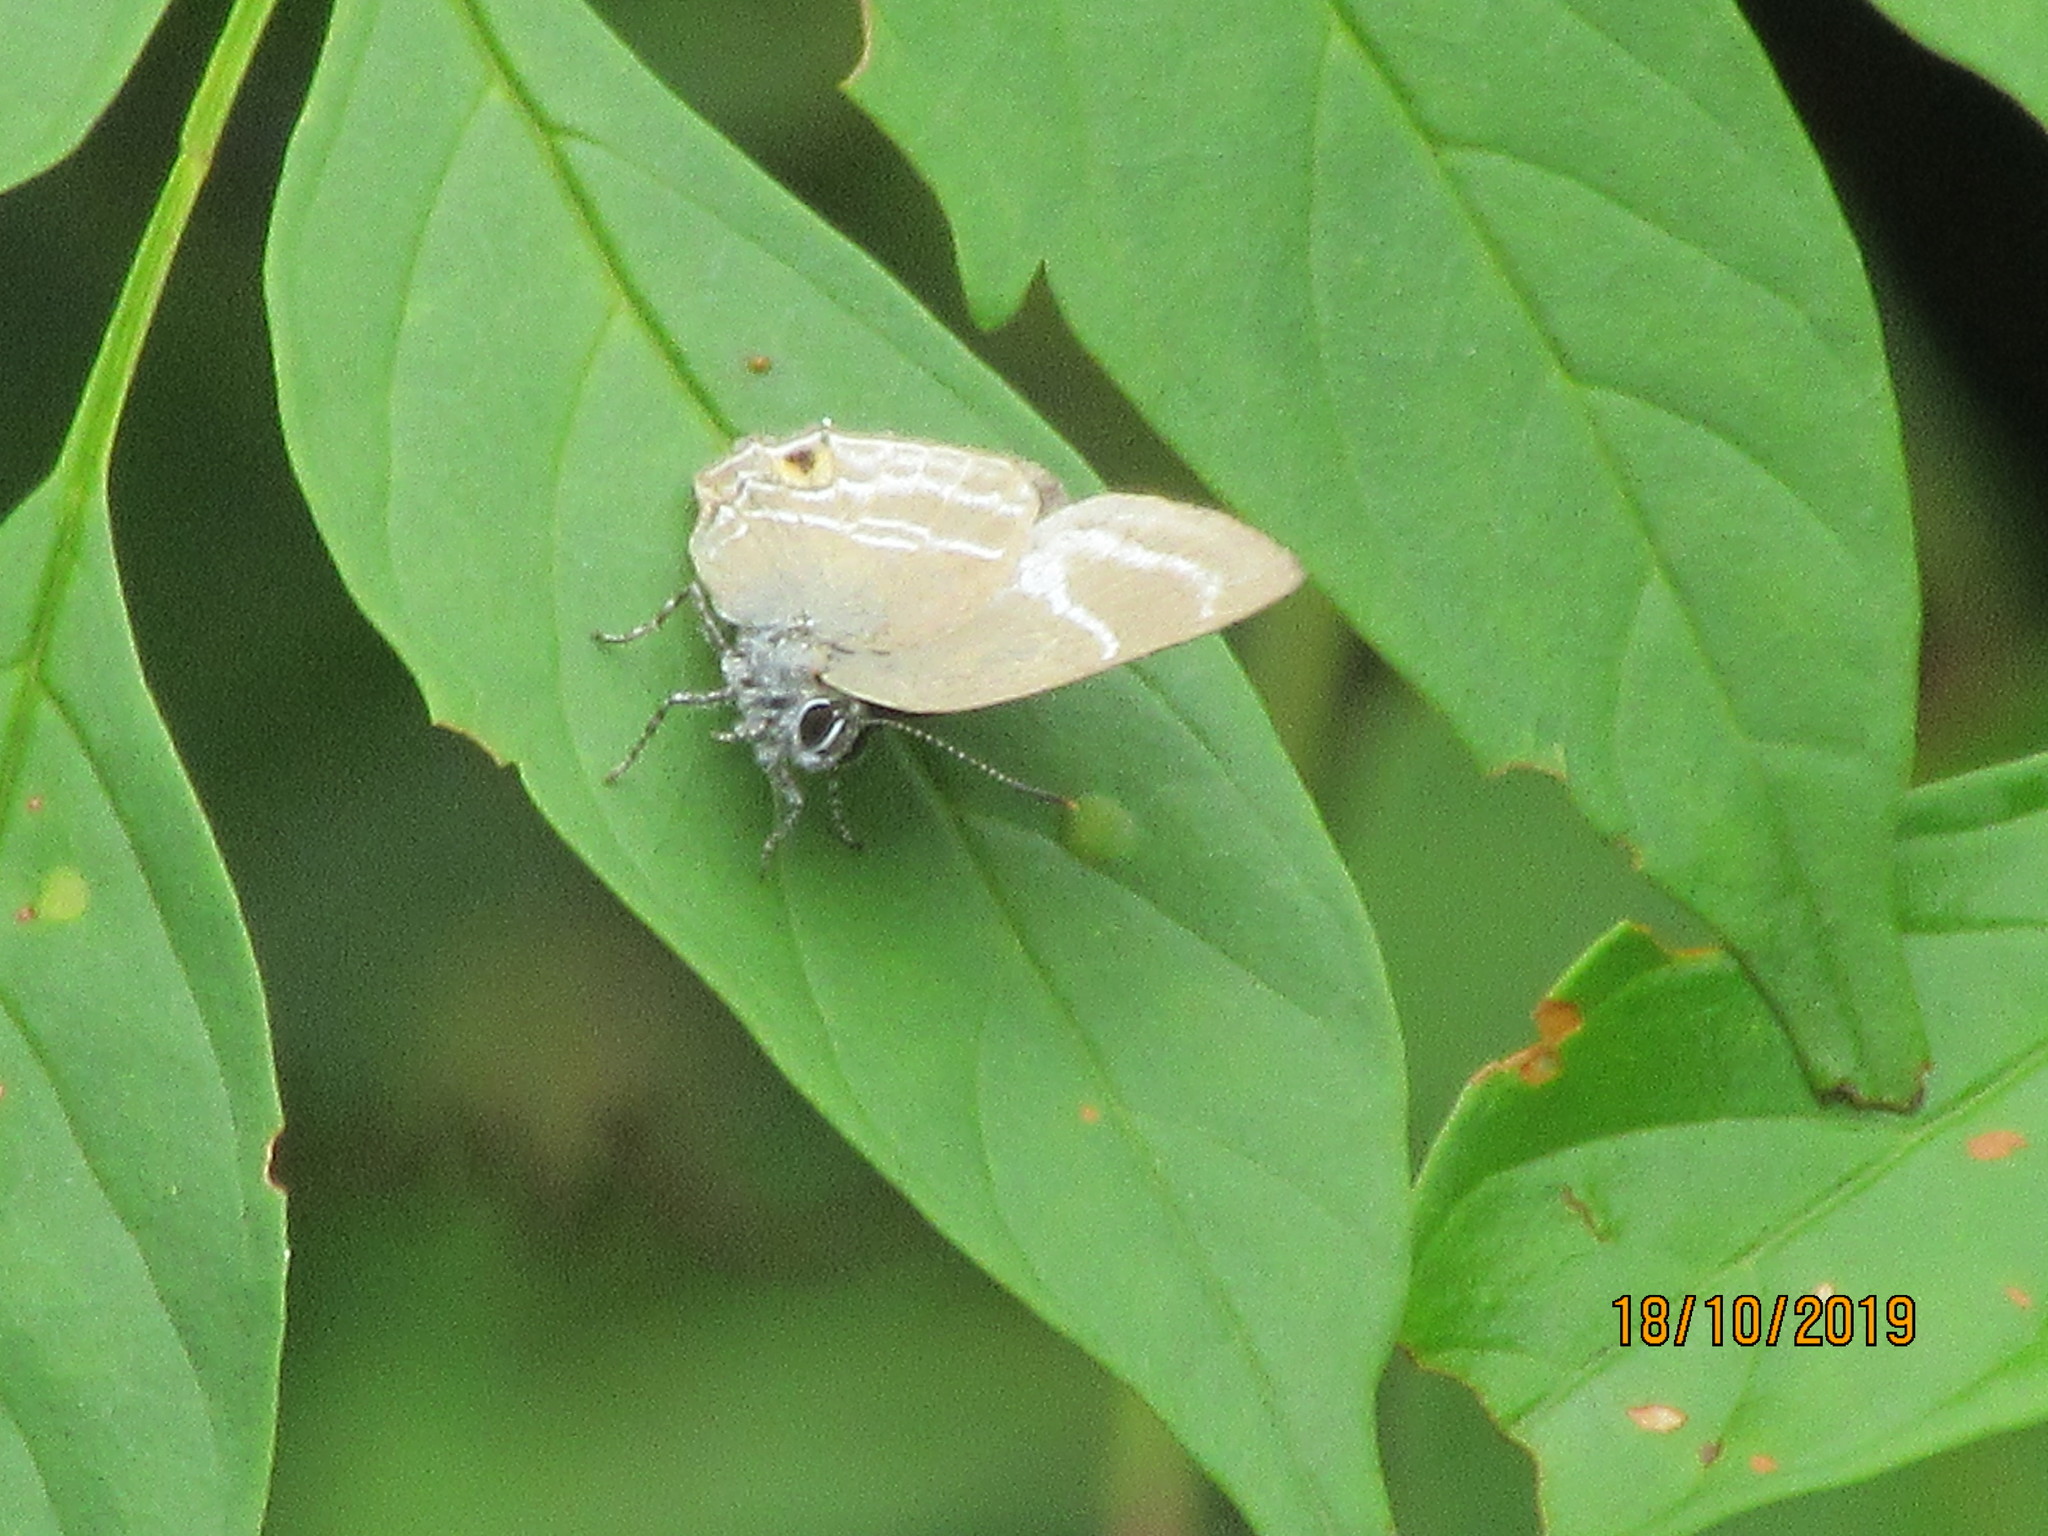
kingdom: Animalia
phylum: Arthropoda
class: Insecta
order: Lepidoptera
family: Lycaenidae
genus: Cupathecla
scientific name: Cupathecla
